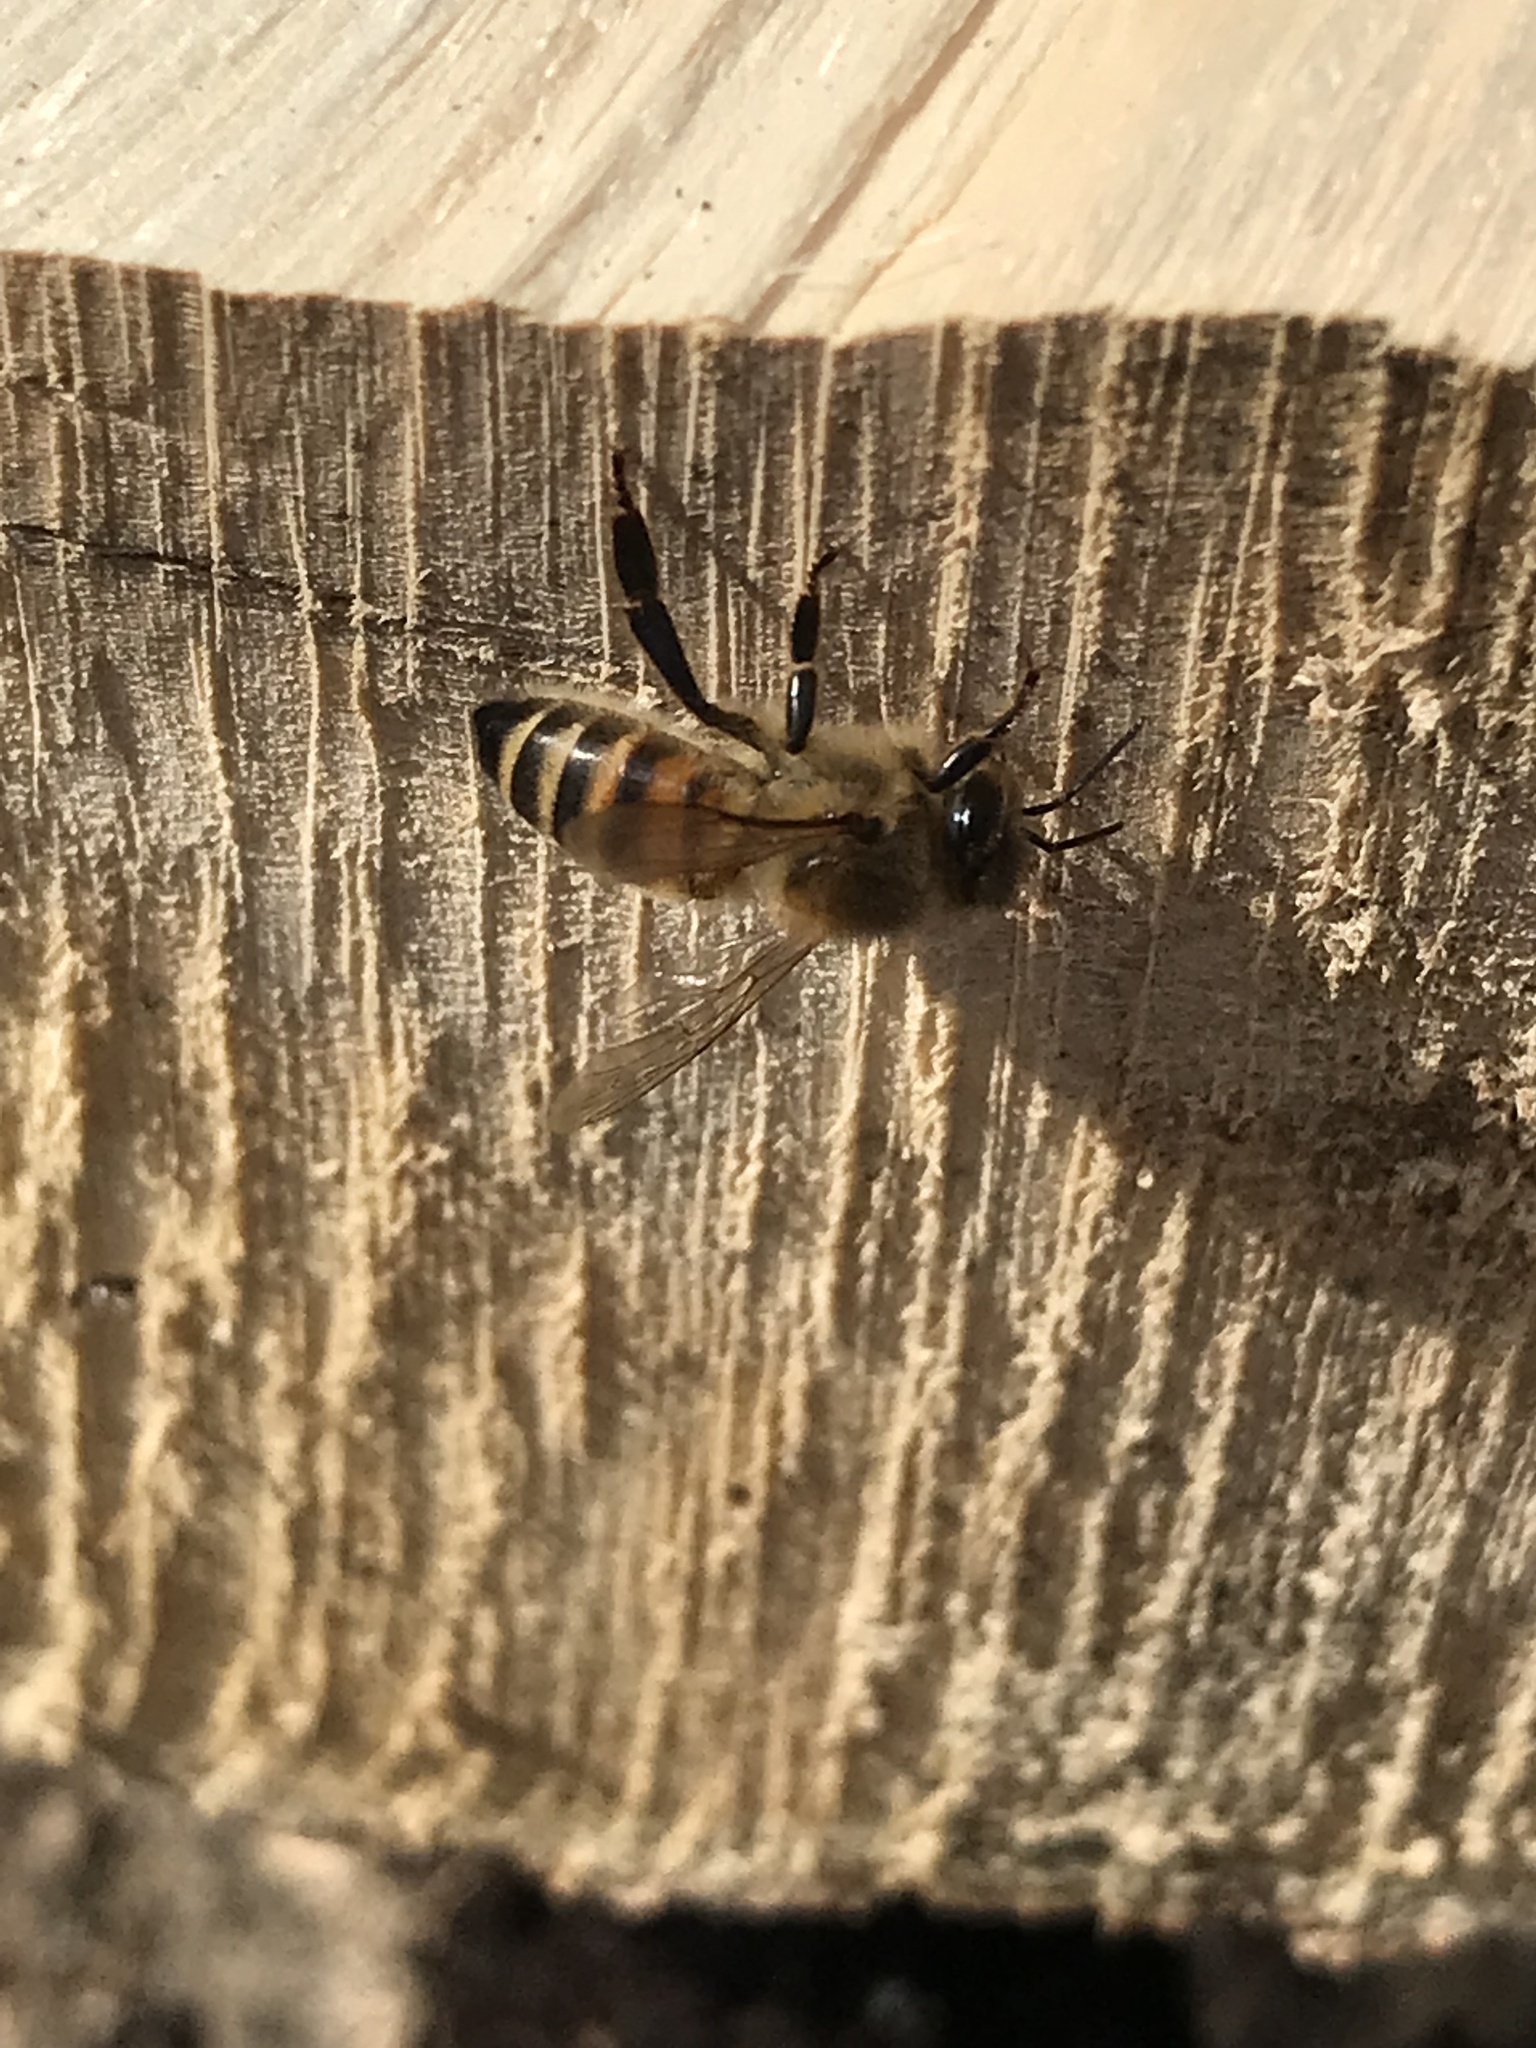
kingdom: Animalia
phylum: Arthropoda
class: Insecta
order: Hymenoptera
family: Apidae
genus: Apis
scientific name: Apis mellifera
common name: Honey bee
